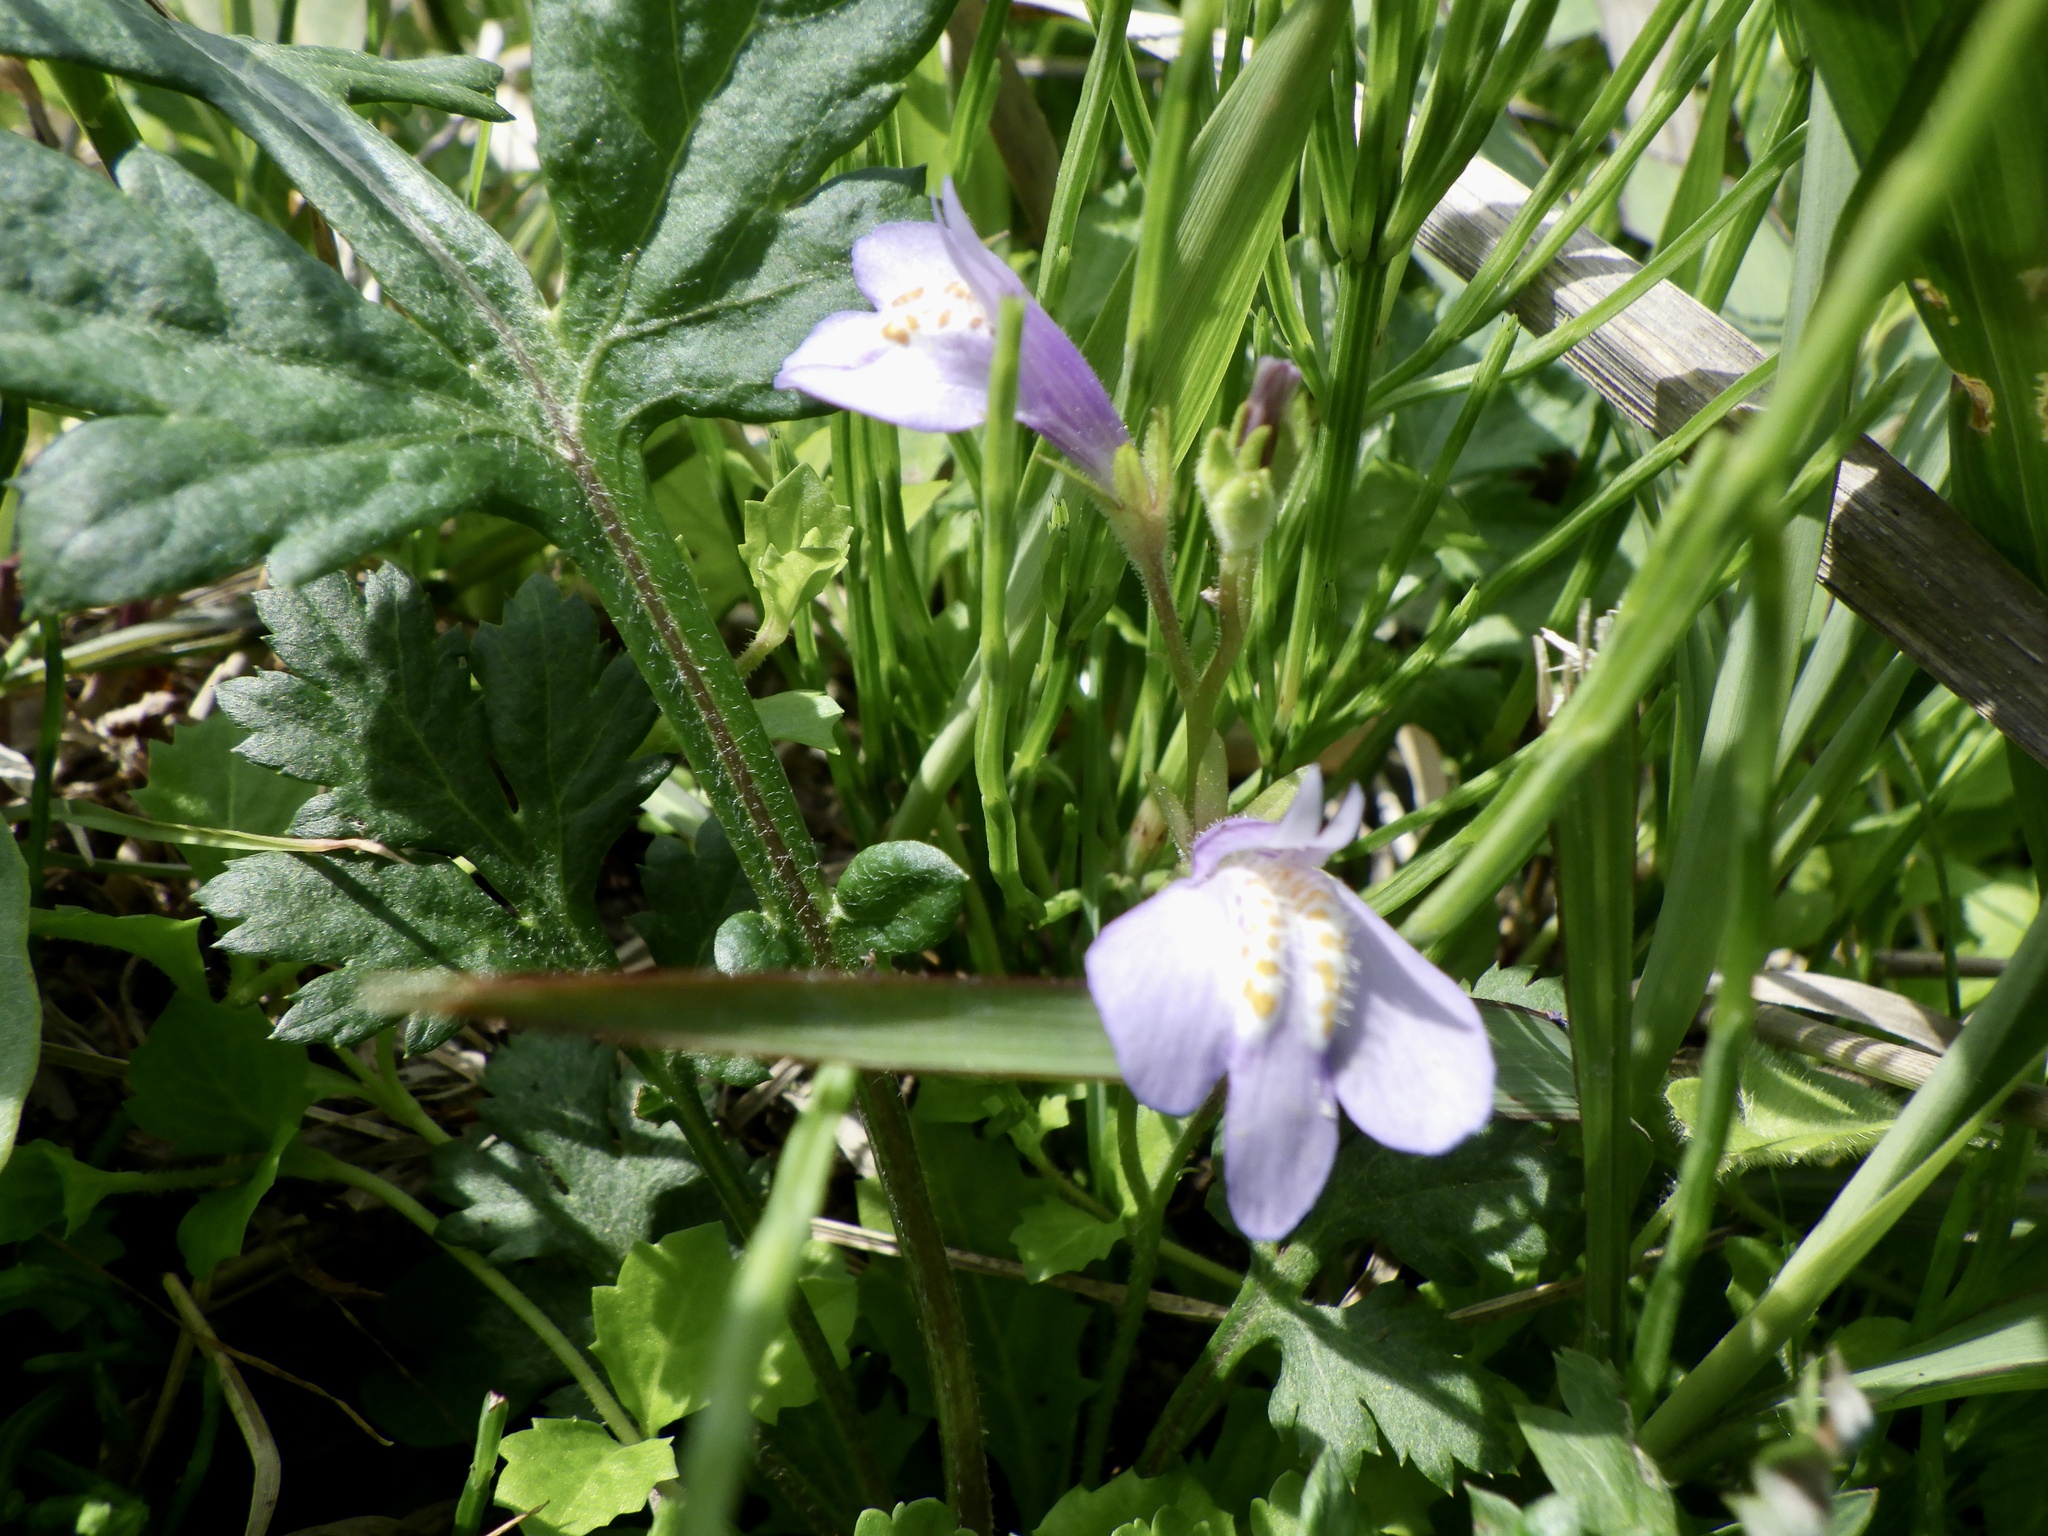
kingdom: Plantae
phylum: Tracheophyta
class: Magnoliopsida
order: Lamiales
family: Mazaceae
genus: Mazus
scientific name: Mazus miquelii
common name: Miquel's mazus
